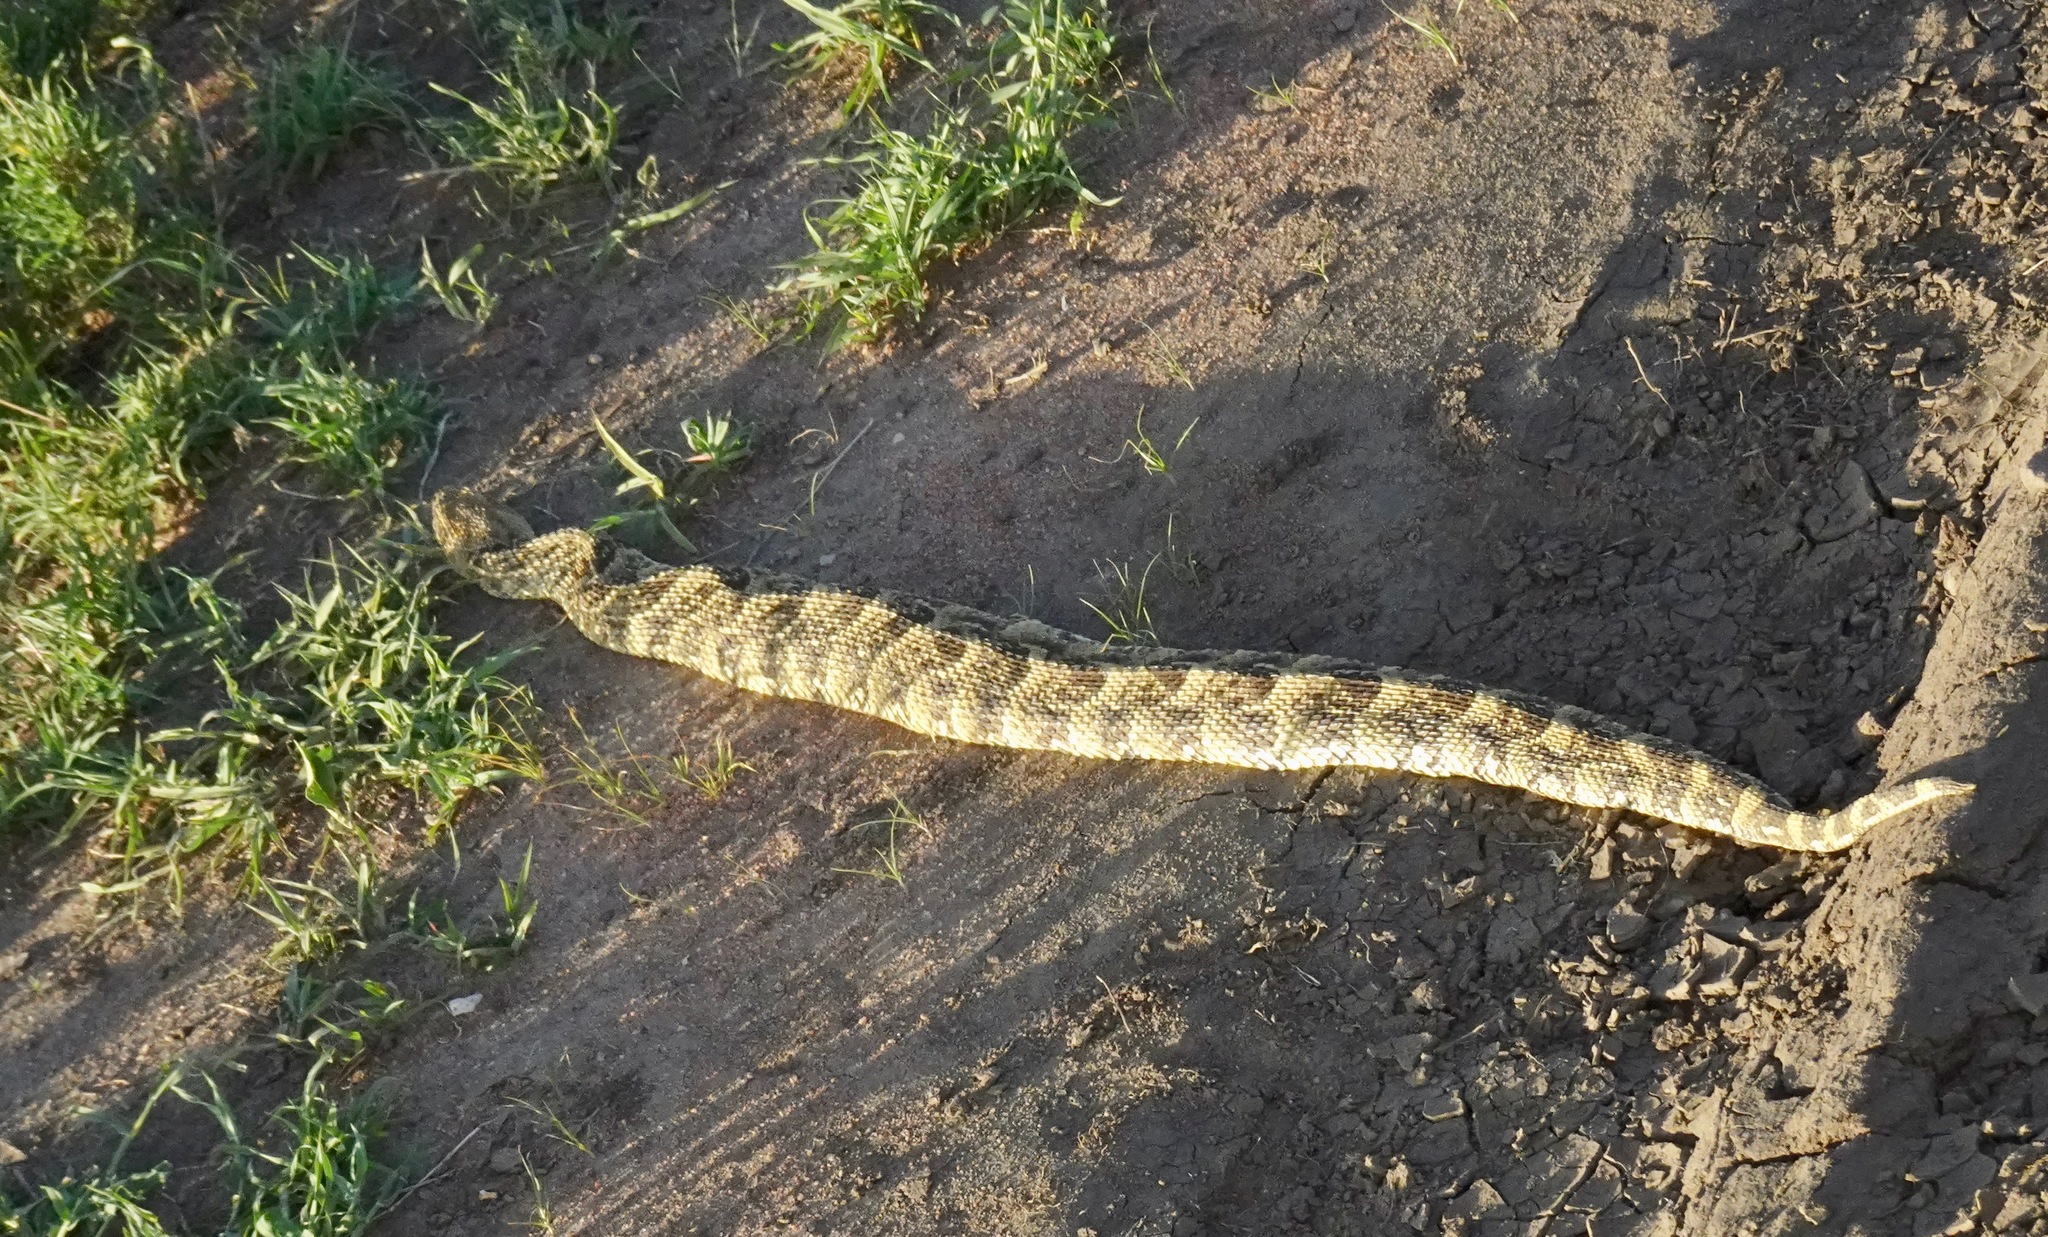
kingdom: Animalia
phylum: Chordata
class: Squamata
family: Viperidae
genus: Bitis
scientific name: Bitis arietans
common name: Puff adder
